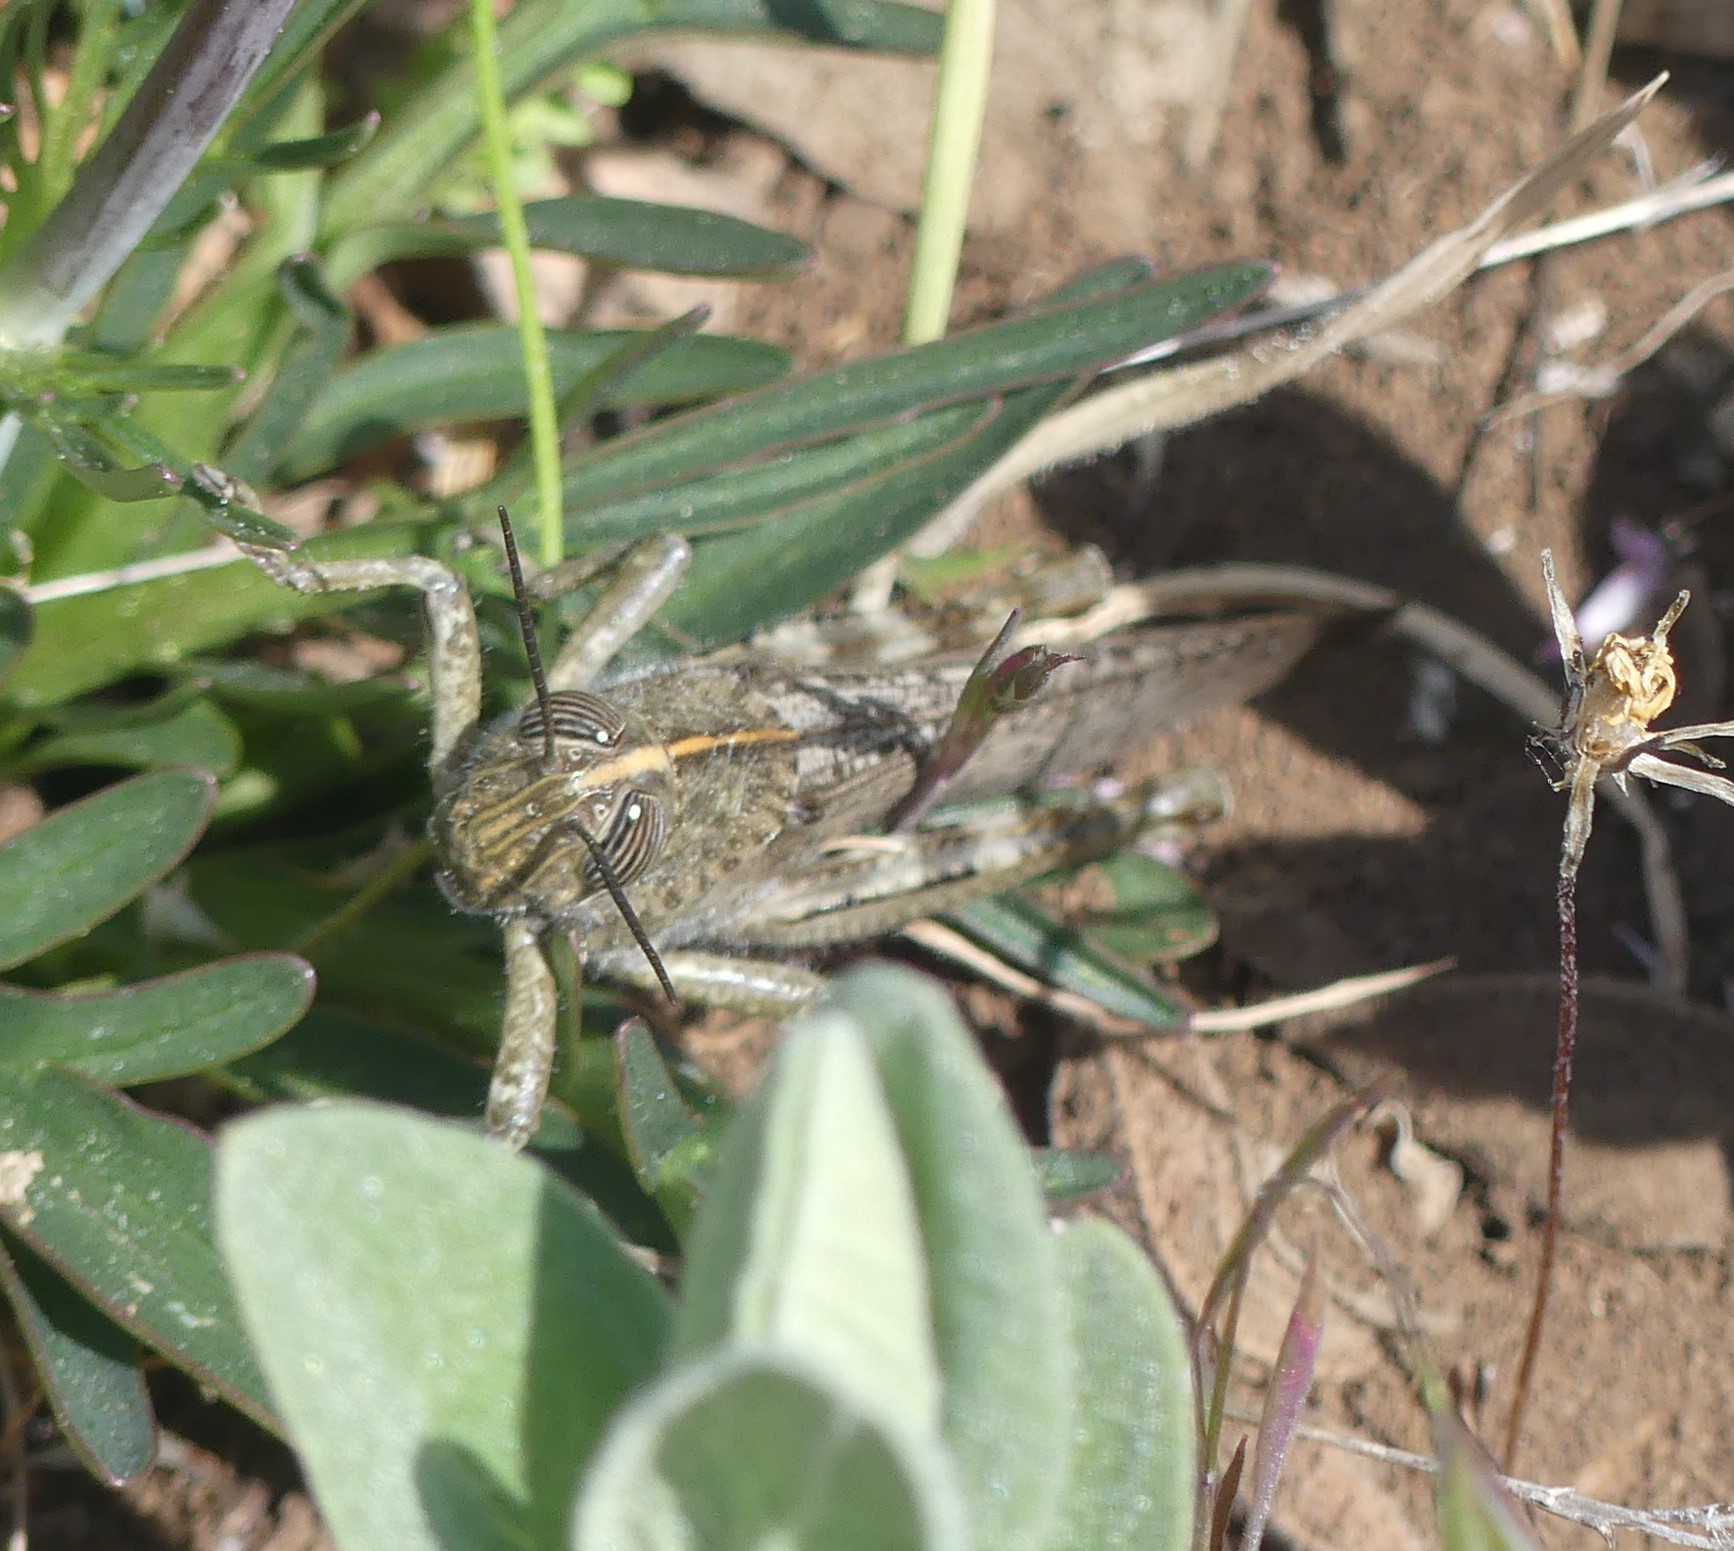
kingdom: Animalia
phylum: Arthropoda
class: Insecta
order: Orthoptera
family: Acrididae
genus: Anacridium
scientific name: Anacridium aegyptium
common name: Egyptian grasshopper
